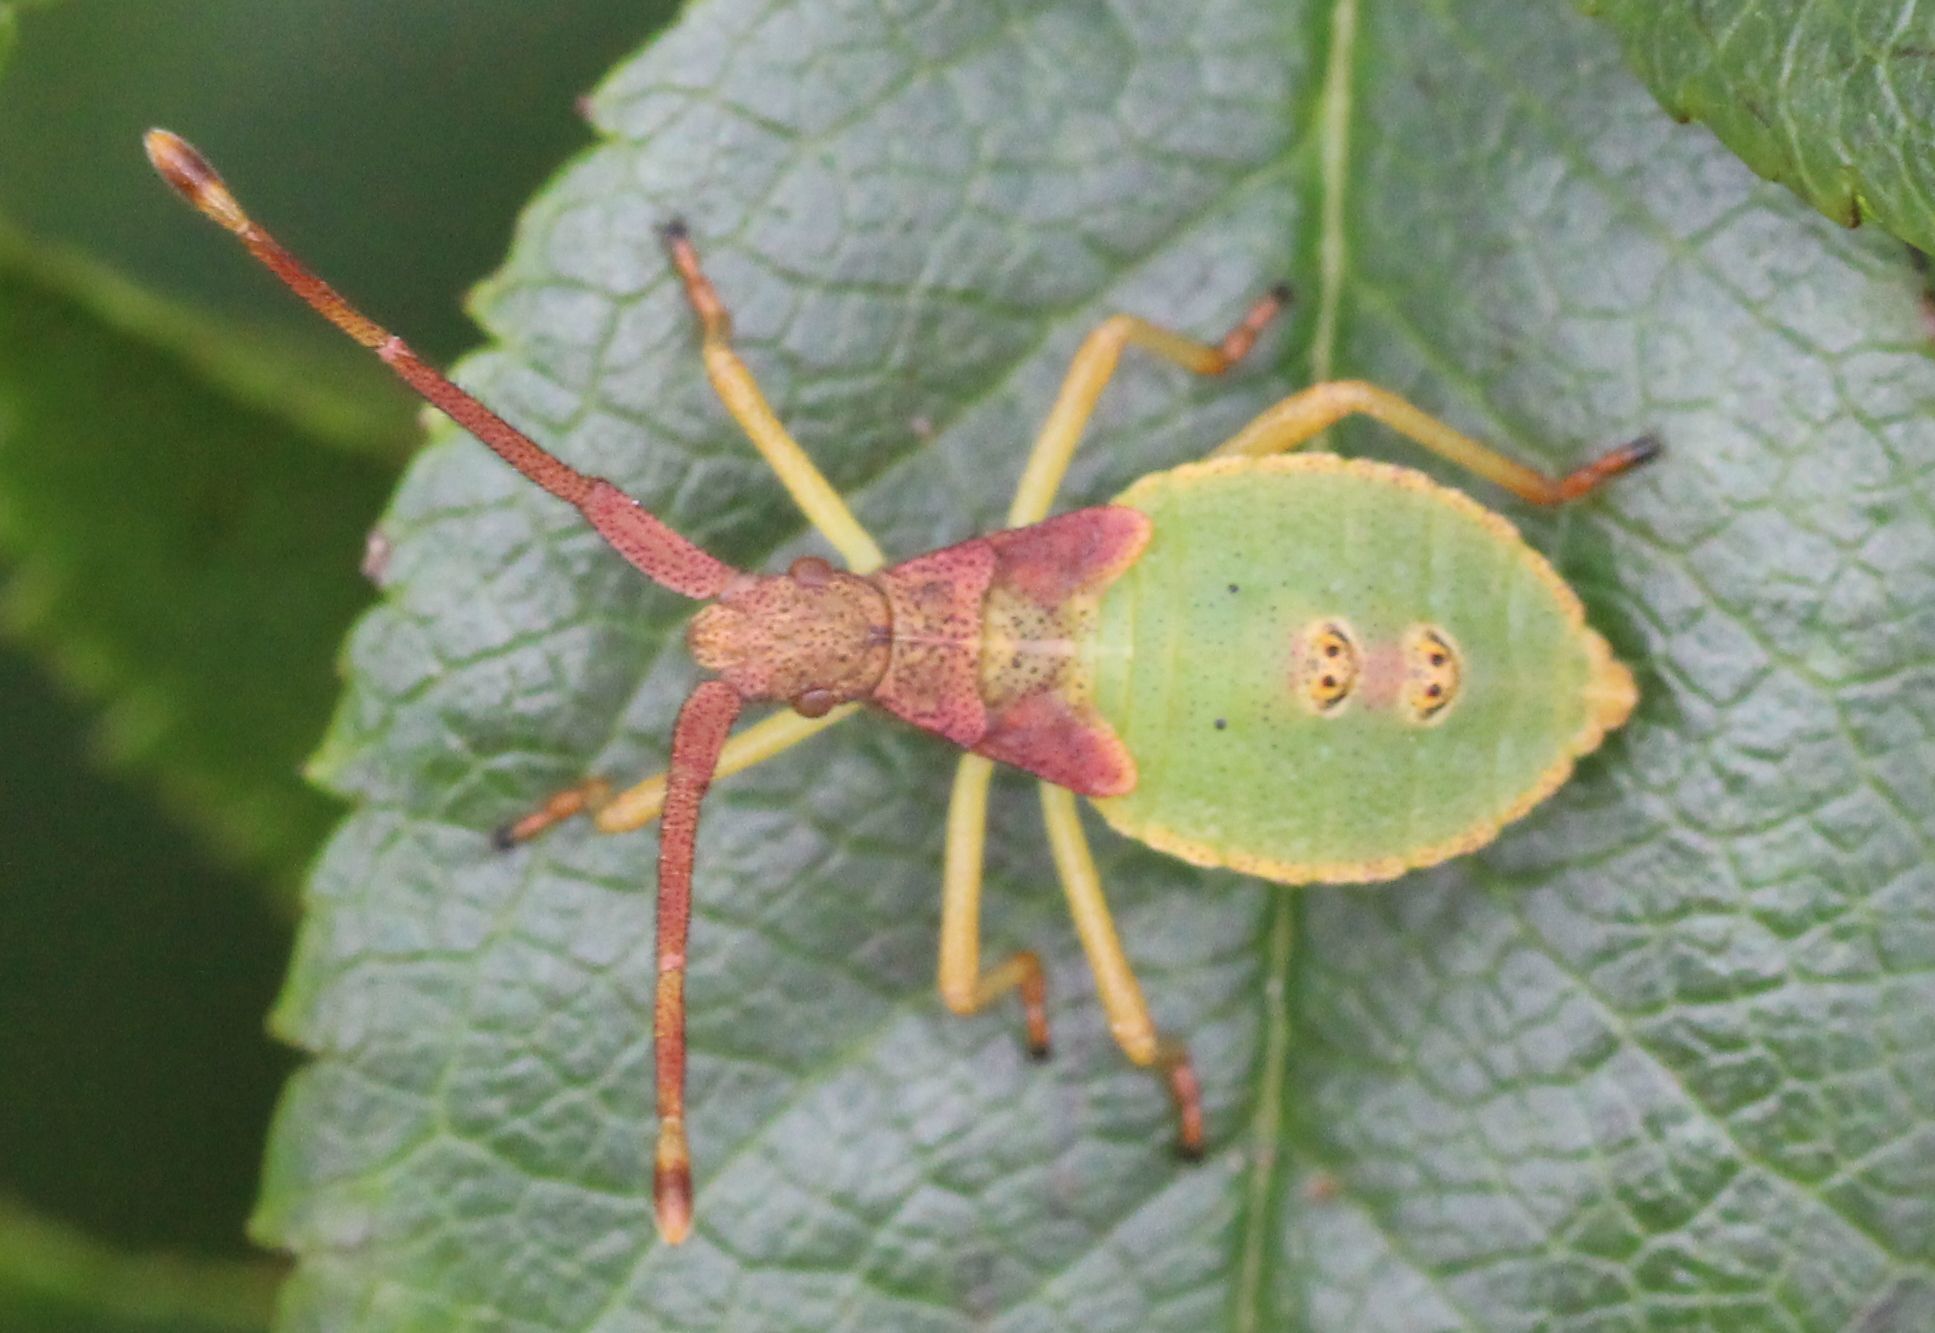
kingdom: Animalia
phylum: Arthropoda
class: Insecta
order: Hemiptera
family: Coreidae
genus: Gonocerus
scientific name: Gonocerus acuteangulatus
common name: Box bug
